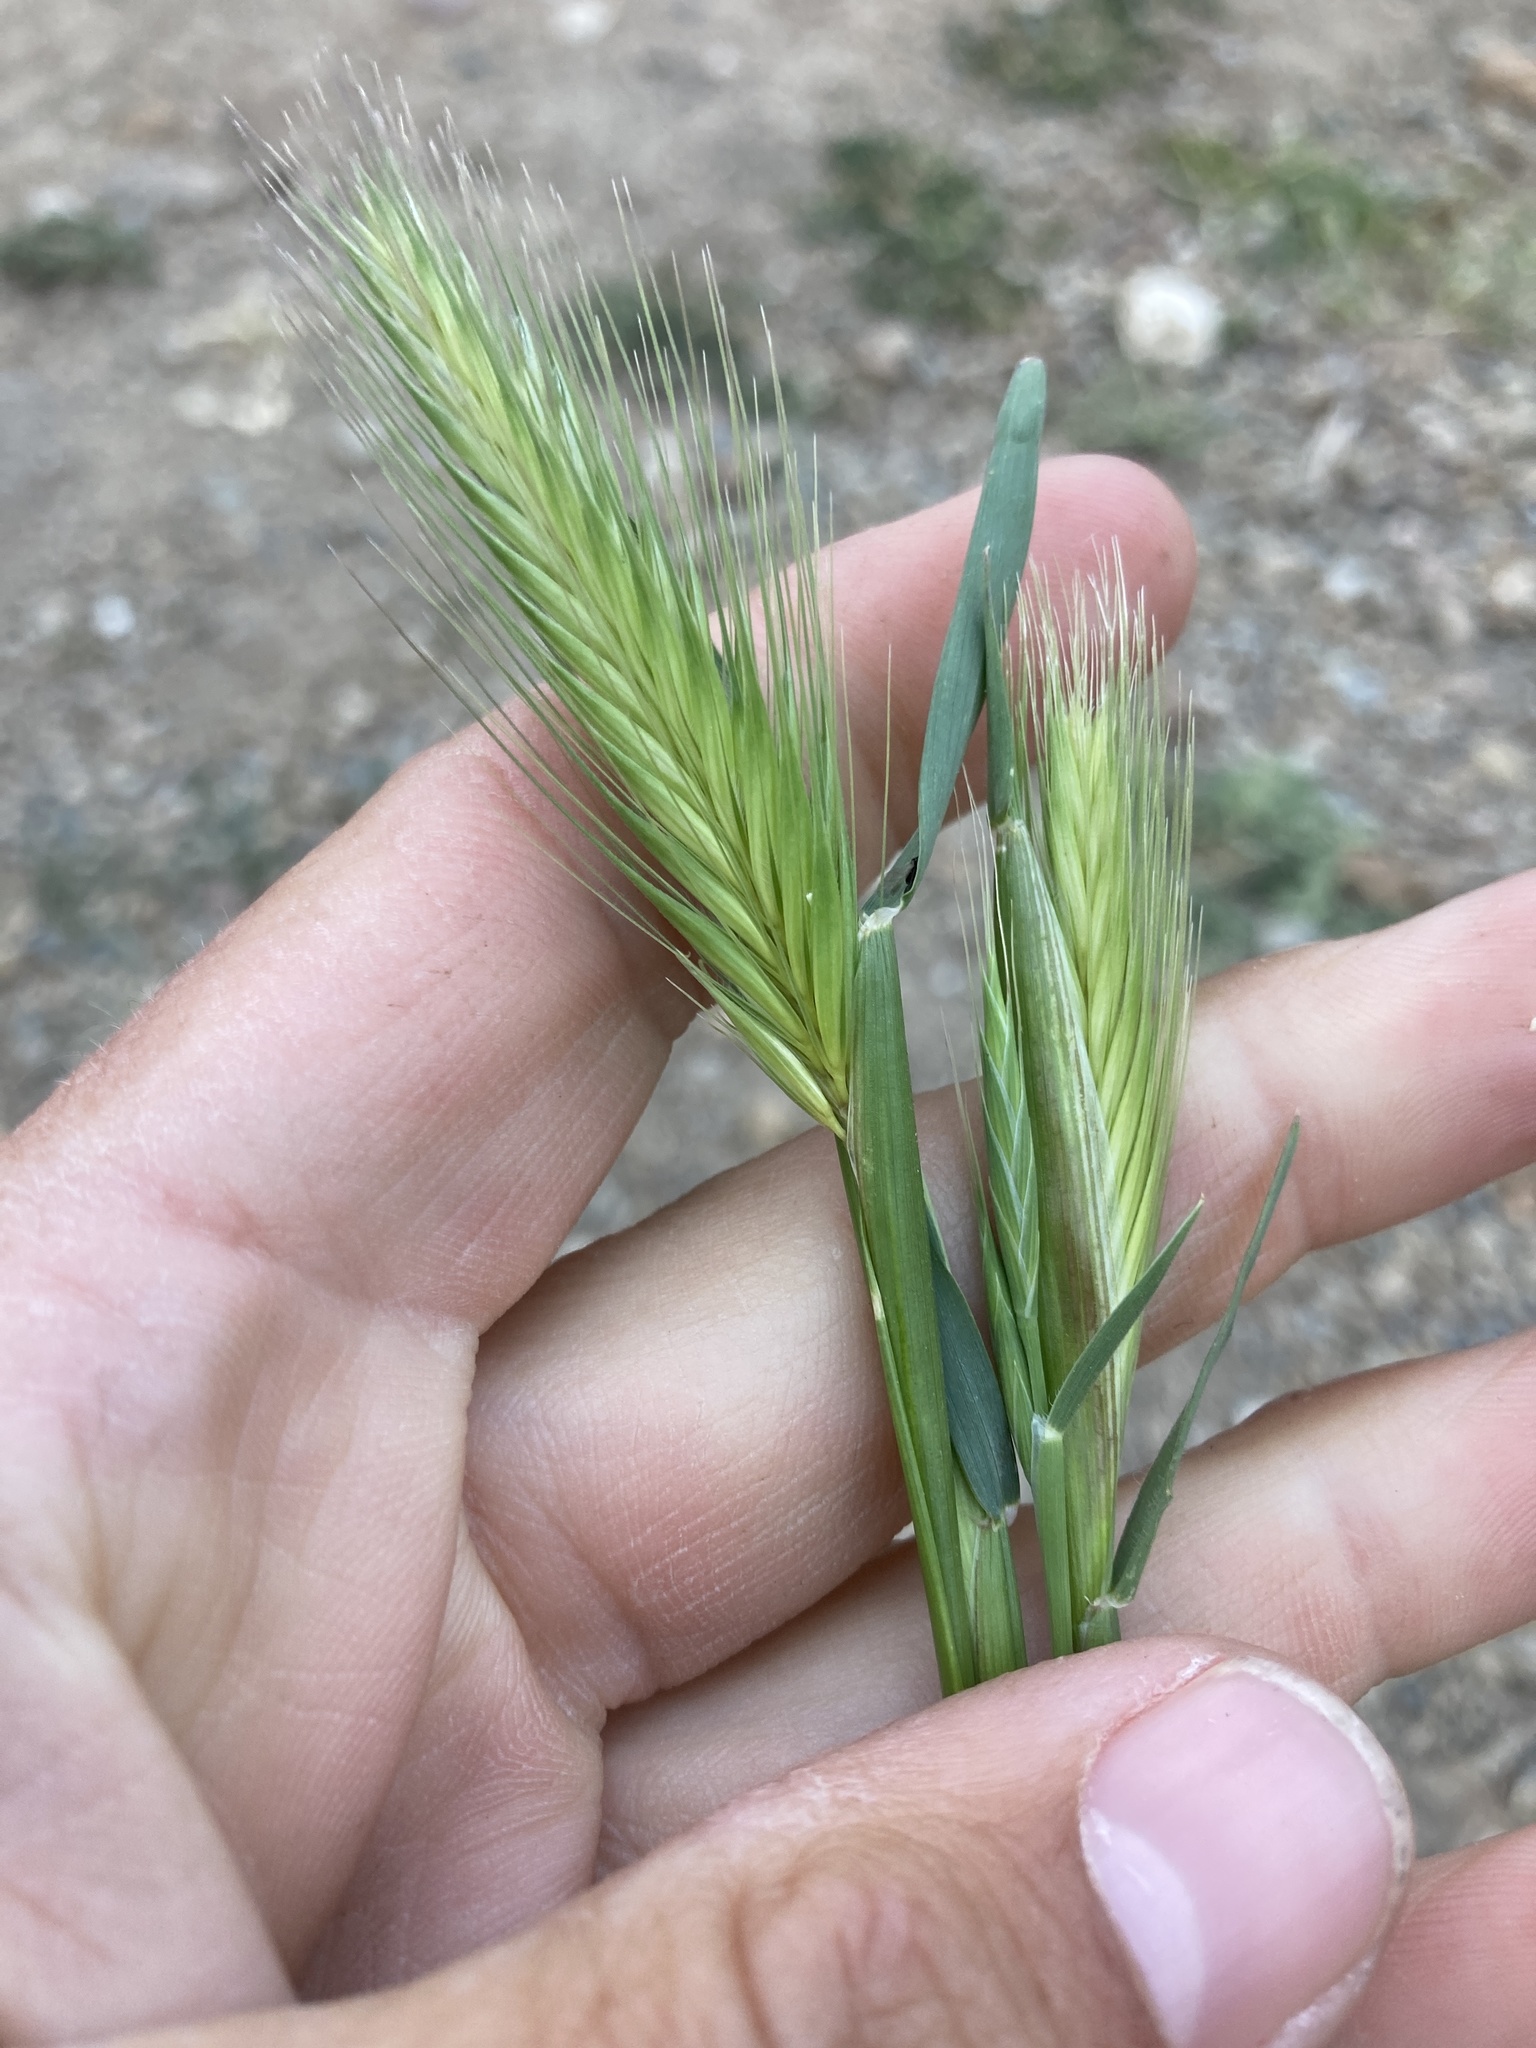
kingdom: Plantae
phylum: Tracheophyta
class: Liliopsida
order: Poales
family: Poaceae
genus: Hordeum
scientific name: Hordeum murinum
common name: Wall barley
